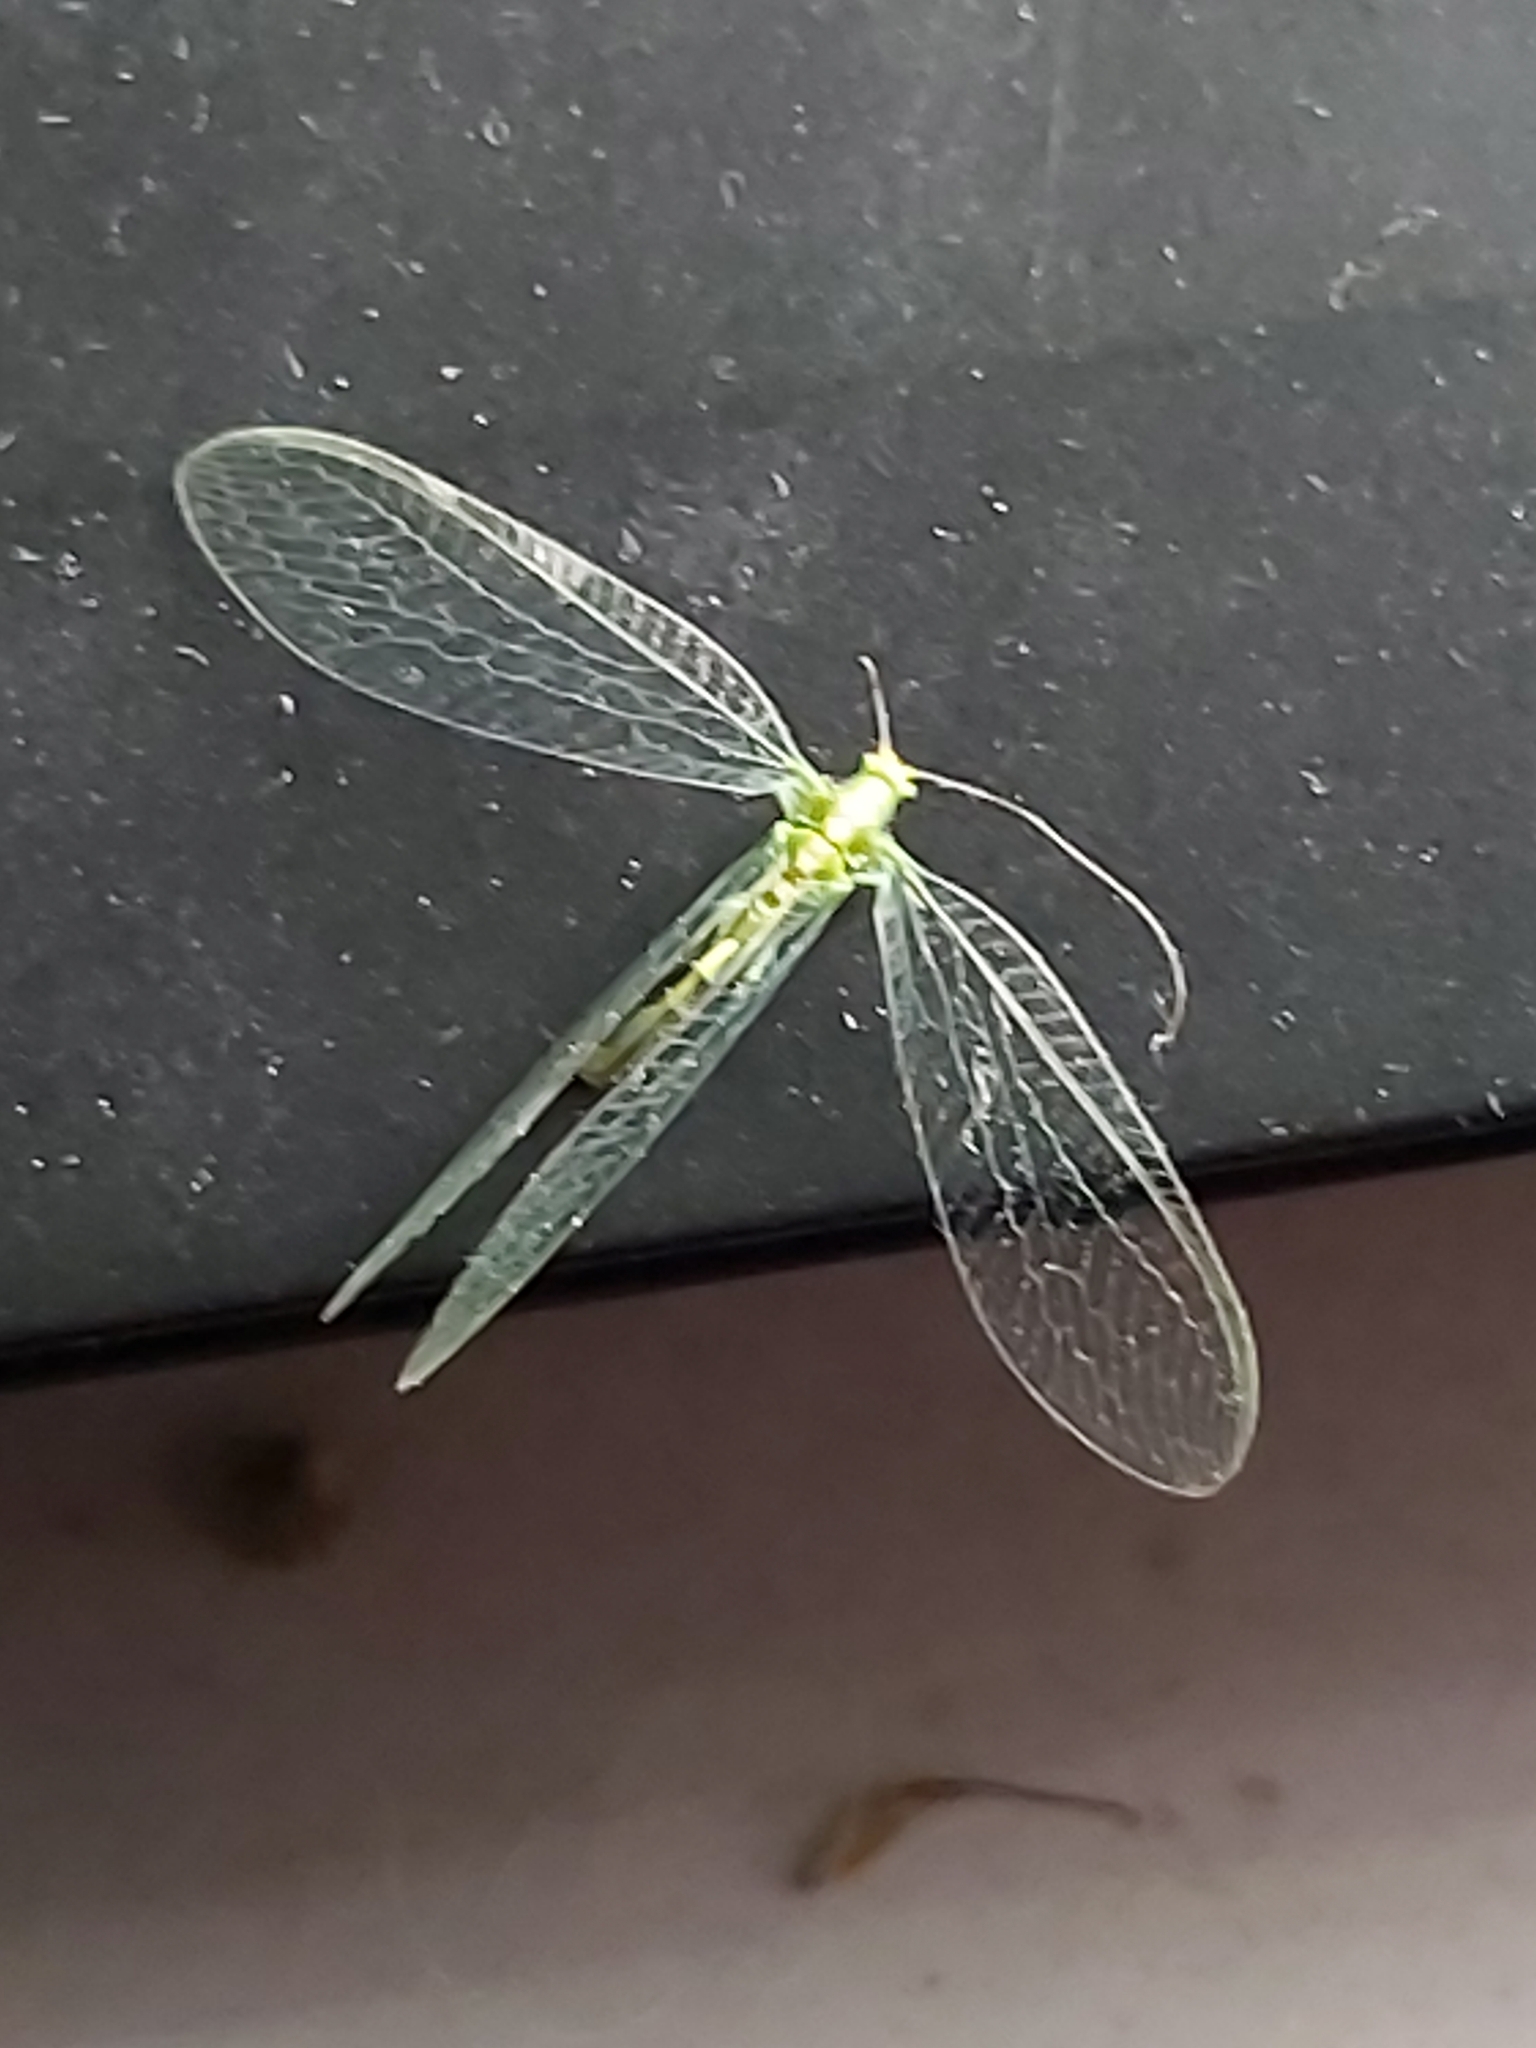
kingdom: Animalia
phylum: Arthropoda
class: Insecta
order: Neuroptera
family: Chrysopidae
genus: Chrysoperla
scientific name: Chrysoperla
